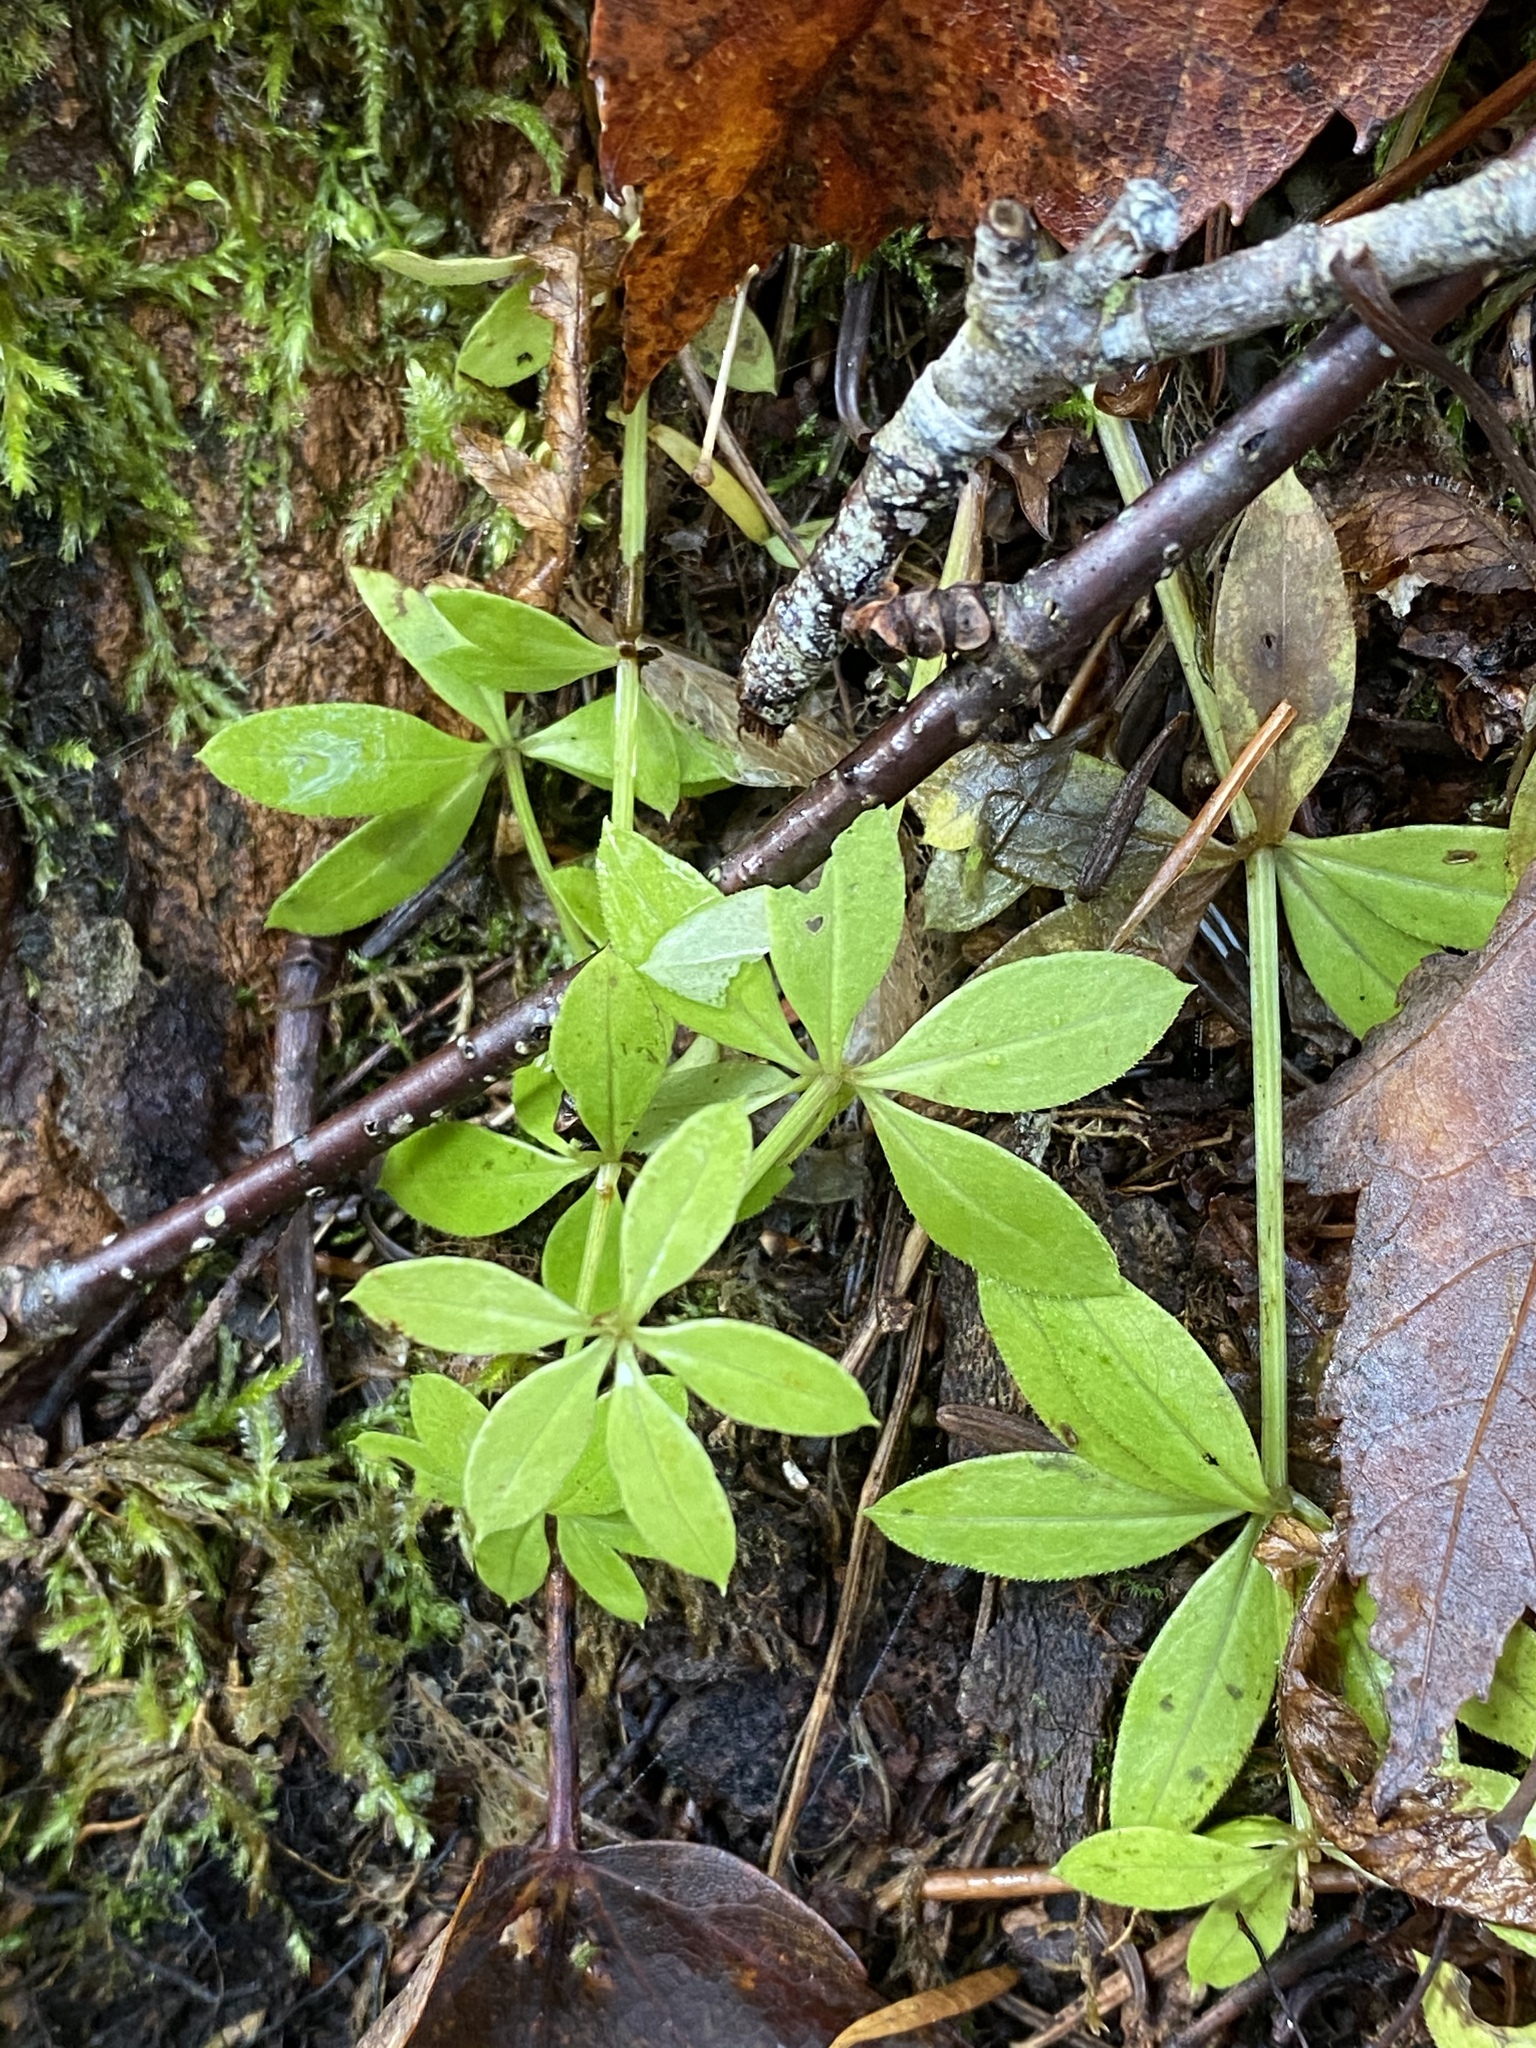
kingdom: Plantae
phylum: Tracheophyta
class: Magnoliopsida
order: Gentianales
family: Rubiaceae
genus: Galium
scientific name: Galium triflorum
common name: Fragrant bedstraw
